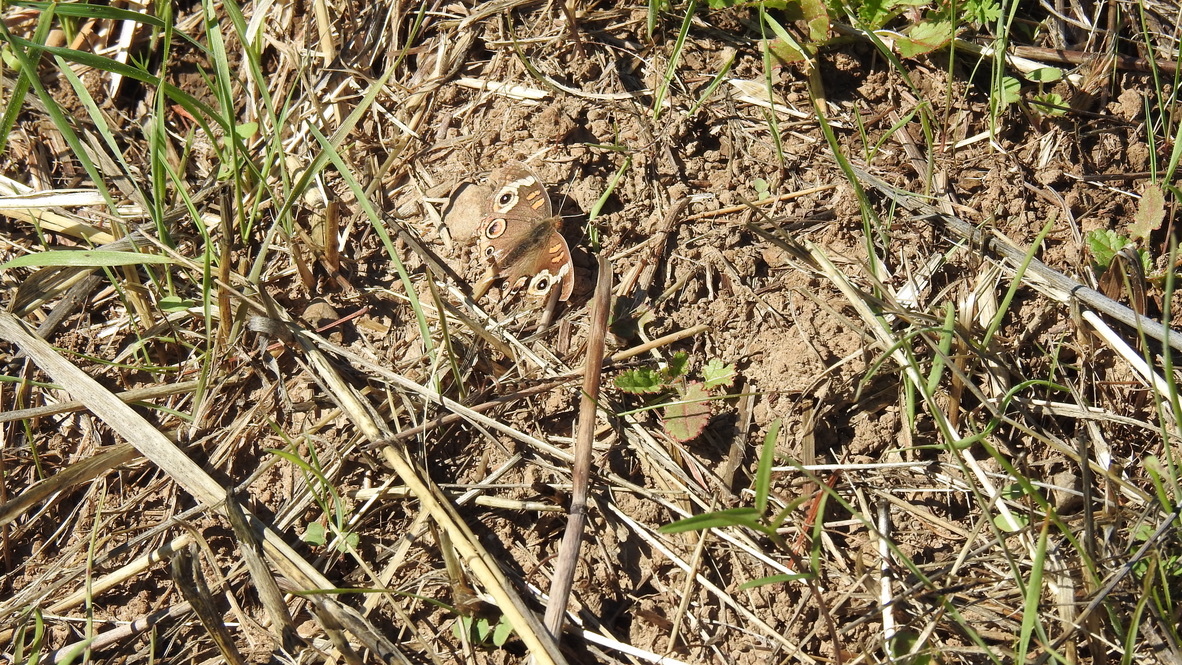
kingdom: Animalia
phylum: Arthropoda
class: Insecta
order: Lepidoptera
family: Nymphalidae
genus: Junonia
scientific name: Junonia grisea
